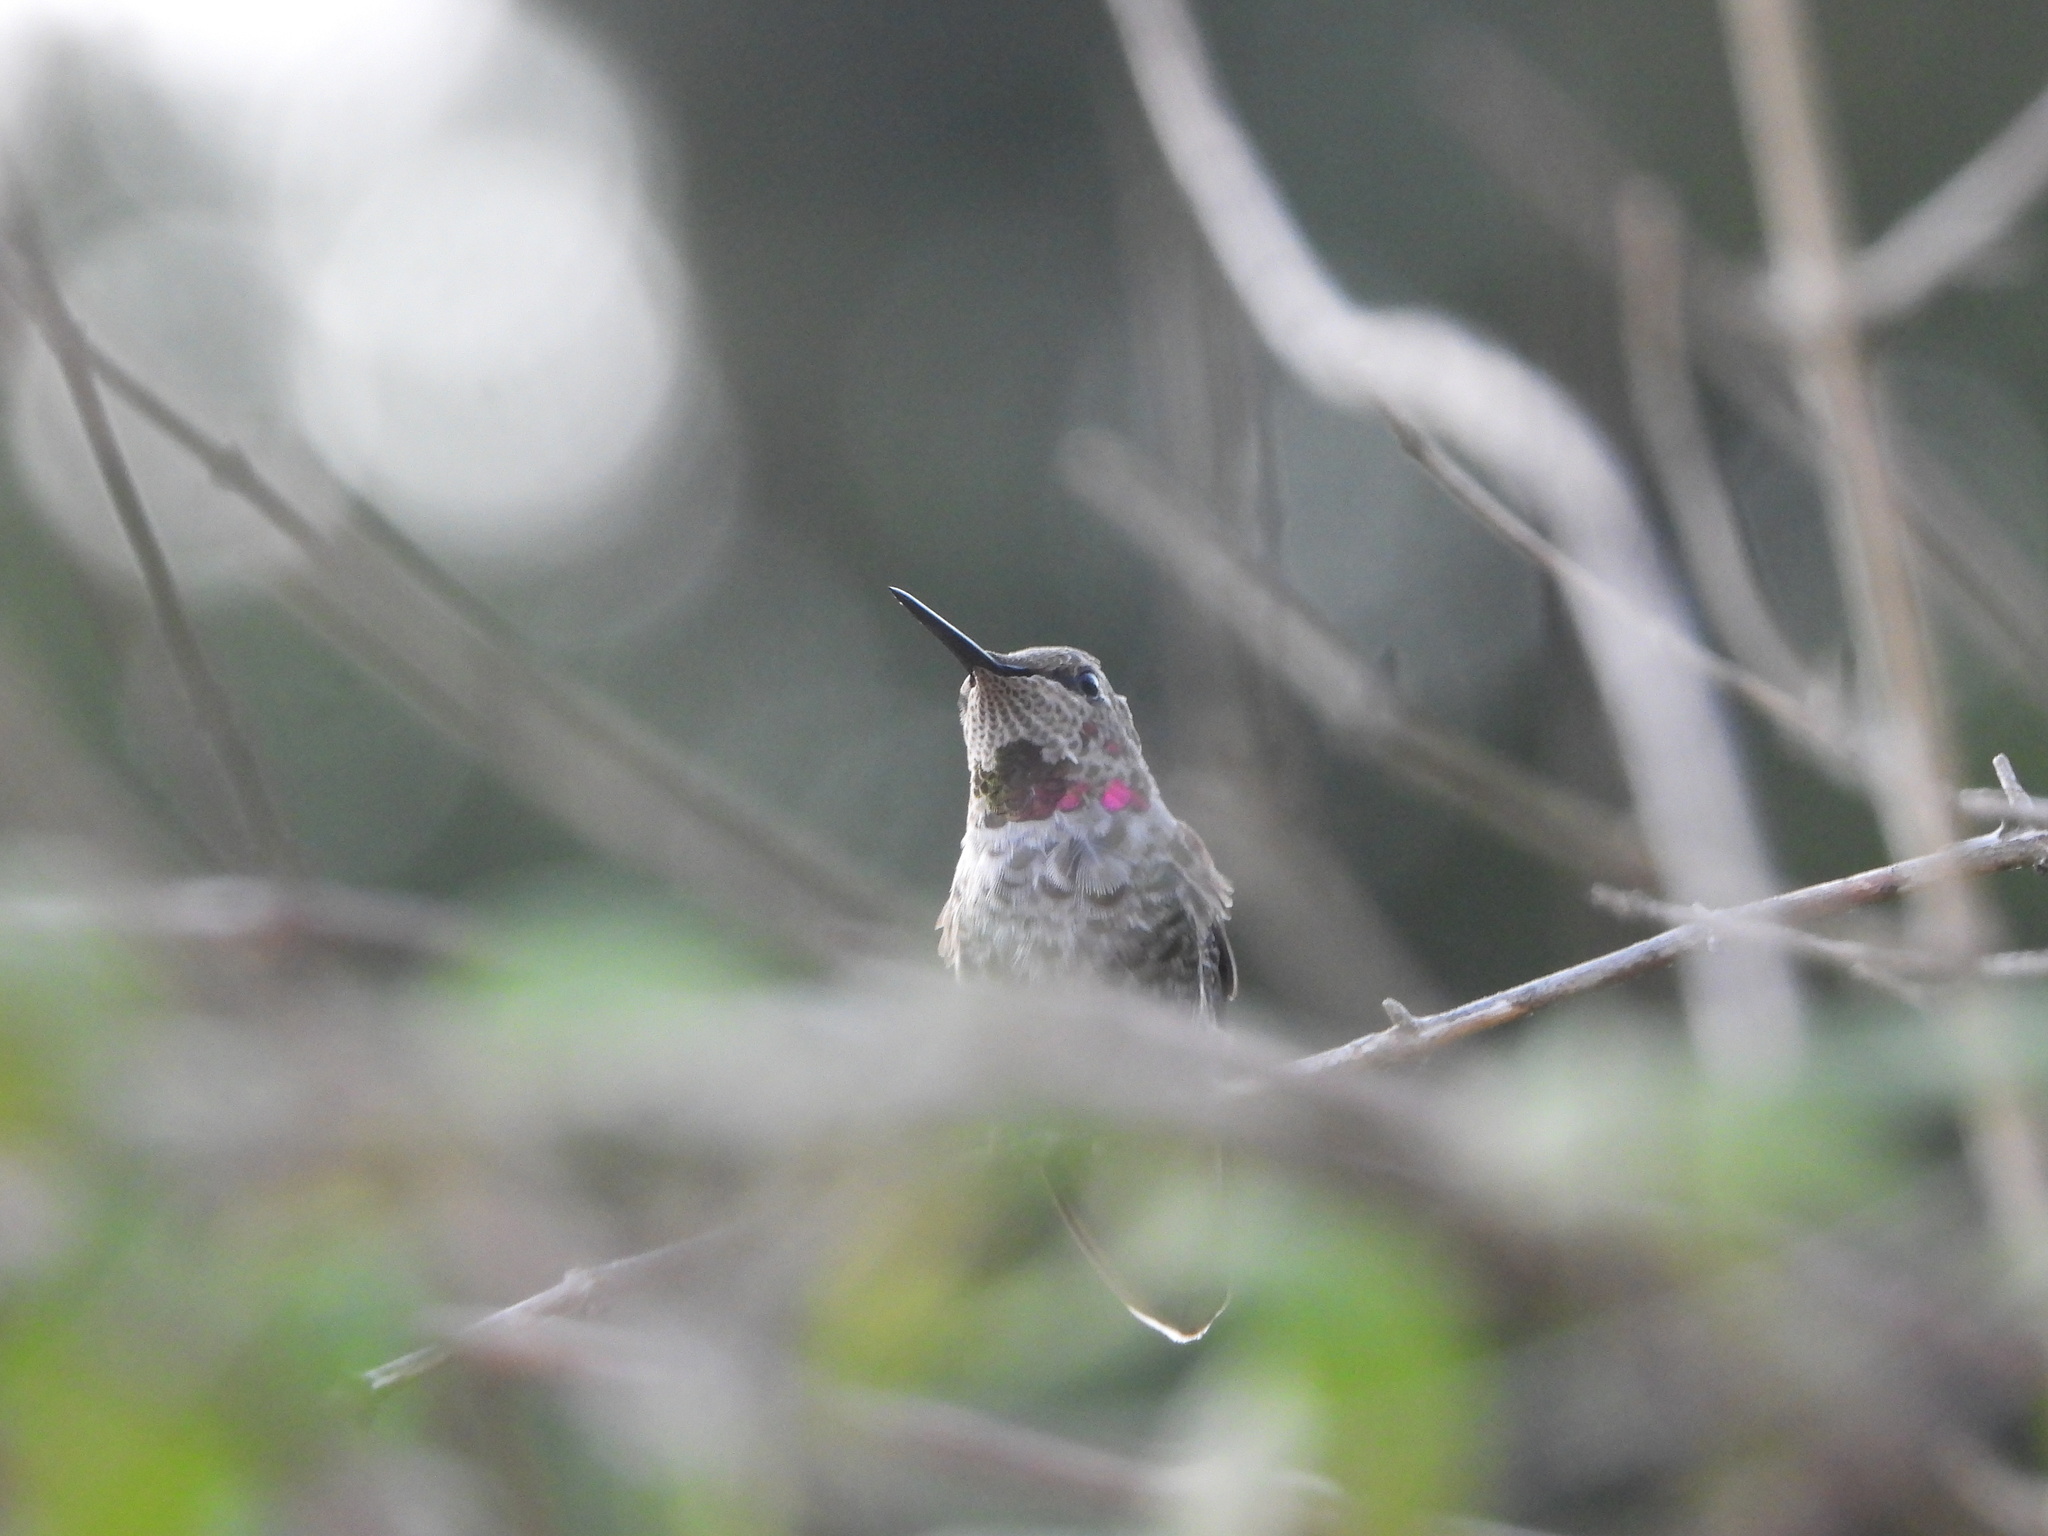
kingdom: Animalia
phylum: Chordata
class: Aves
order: Apodiformes
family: Trochilidae
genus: Calypte
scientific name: Calypte anna
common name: Anna's hummingbird
